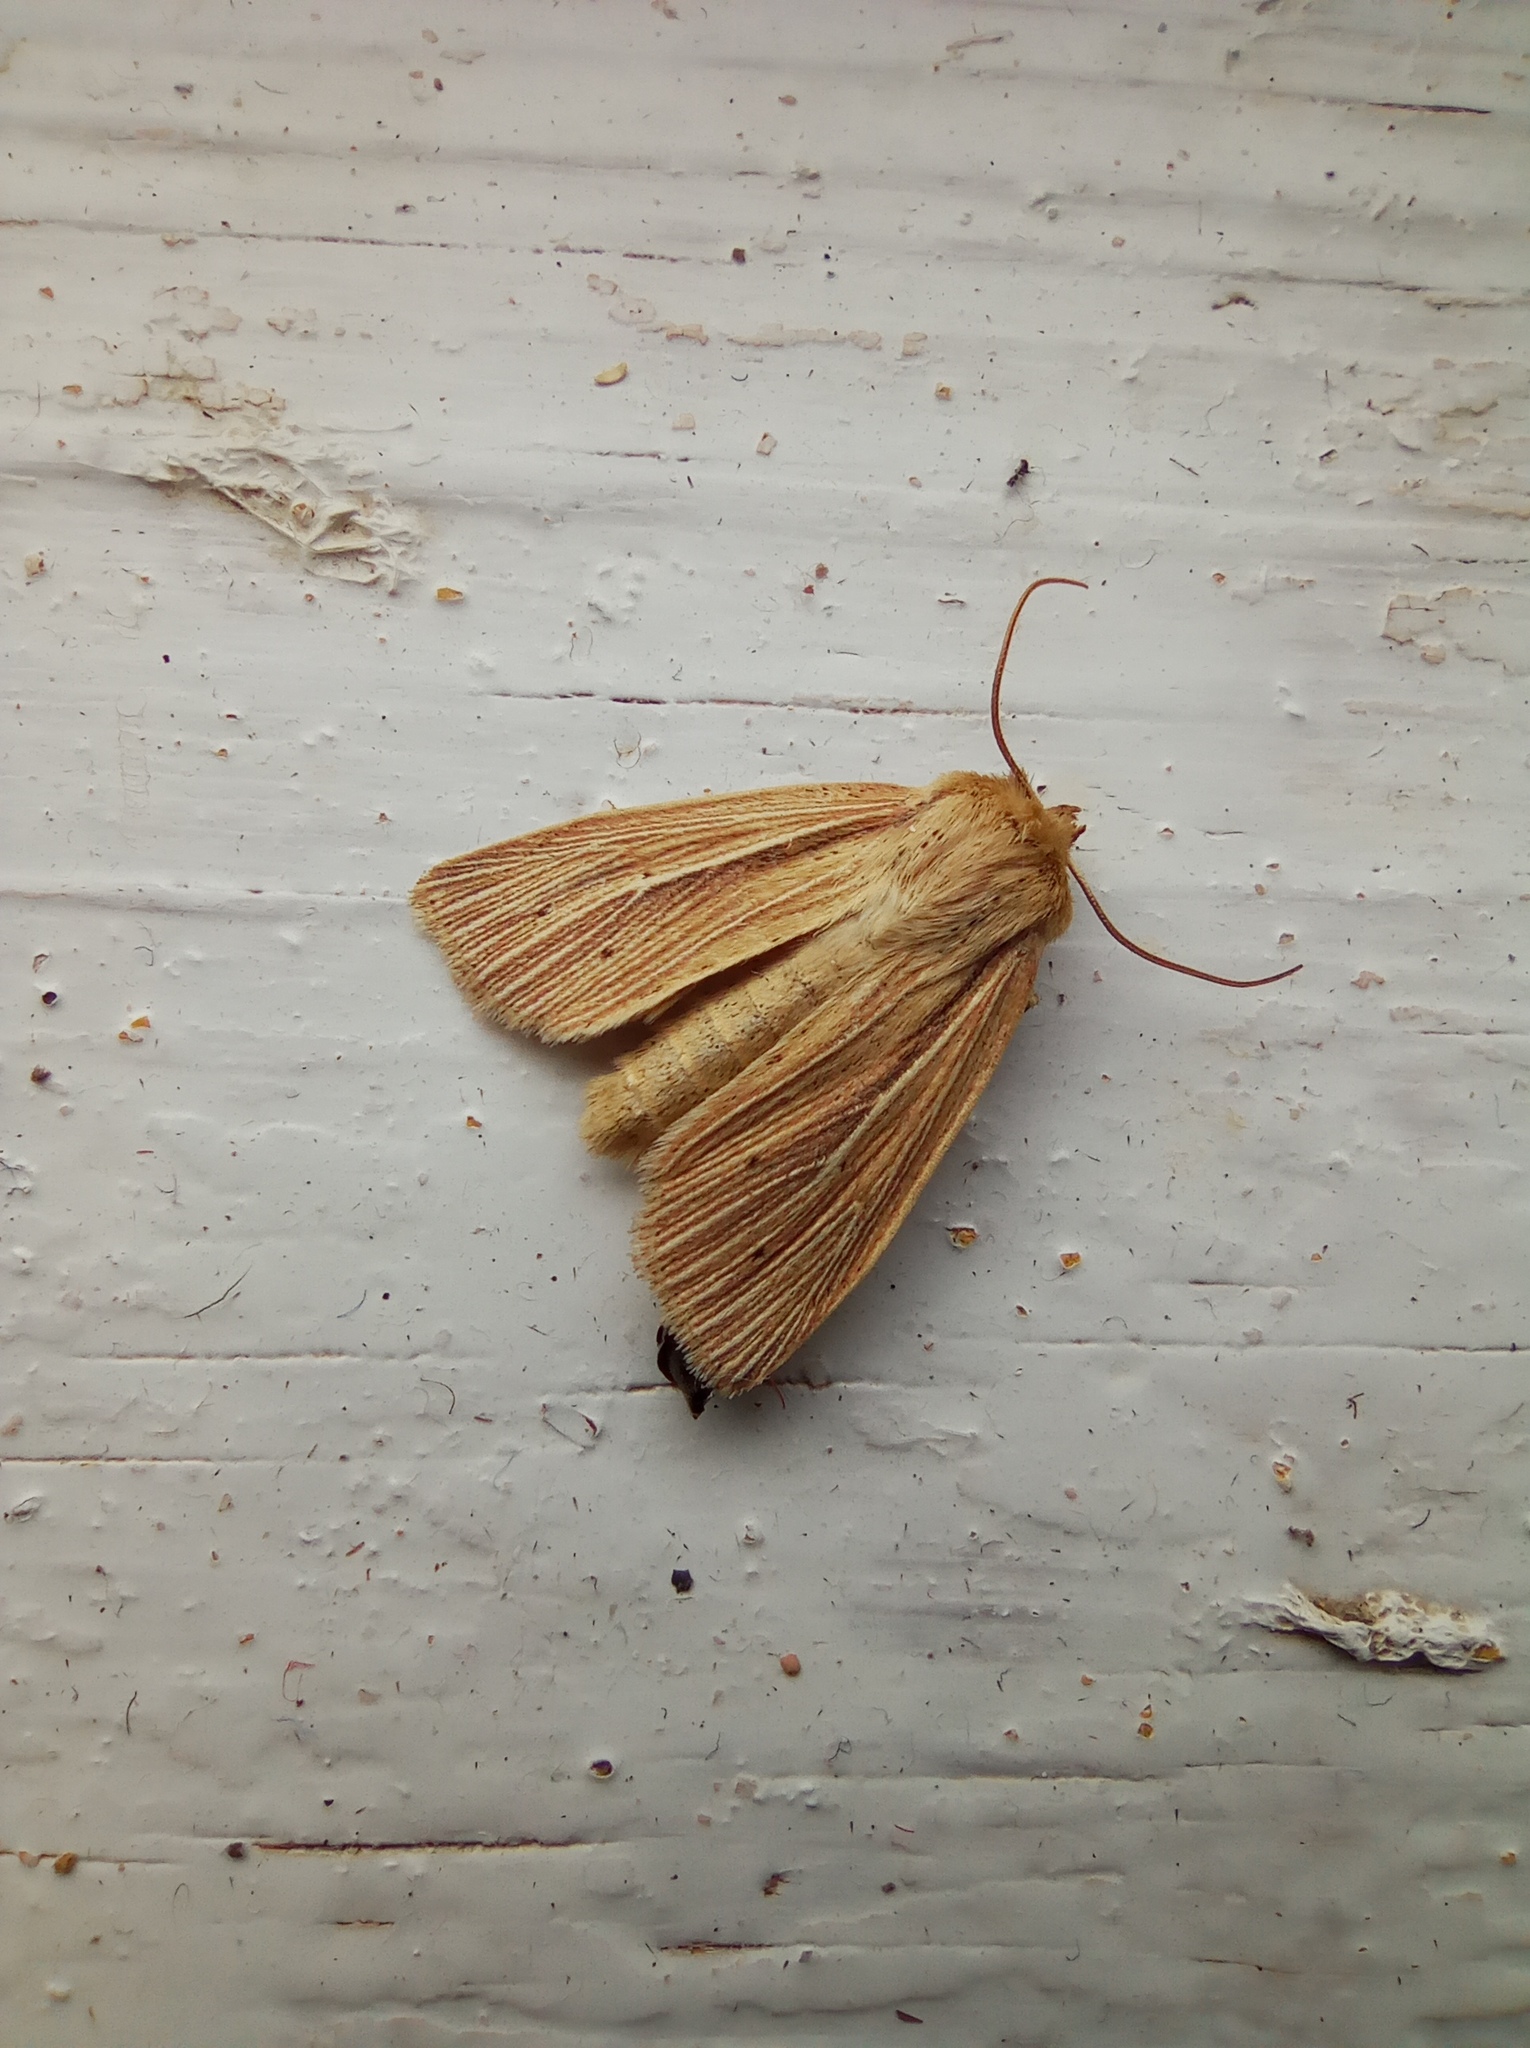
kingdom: Animalia
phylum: Arthropoda
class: Insecta
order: Lepidoptera
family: Noctuidae
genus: Mythimna
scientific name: Mythimna impura
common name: Smoky wainscot
